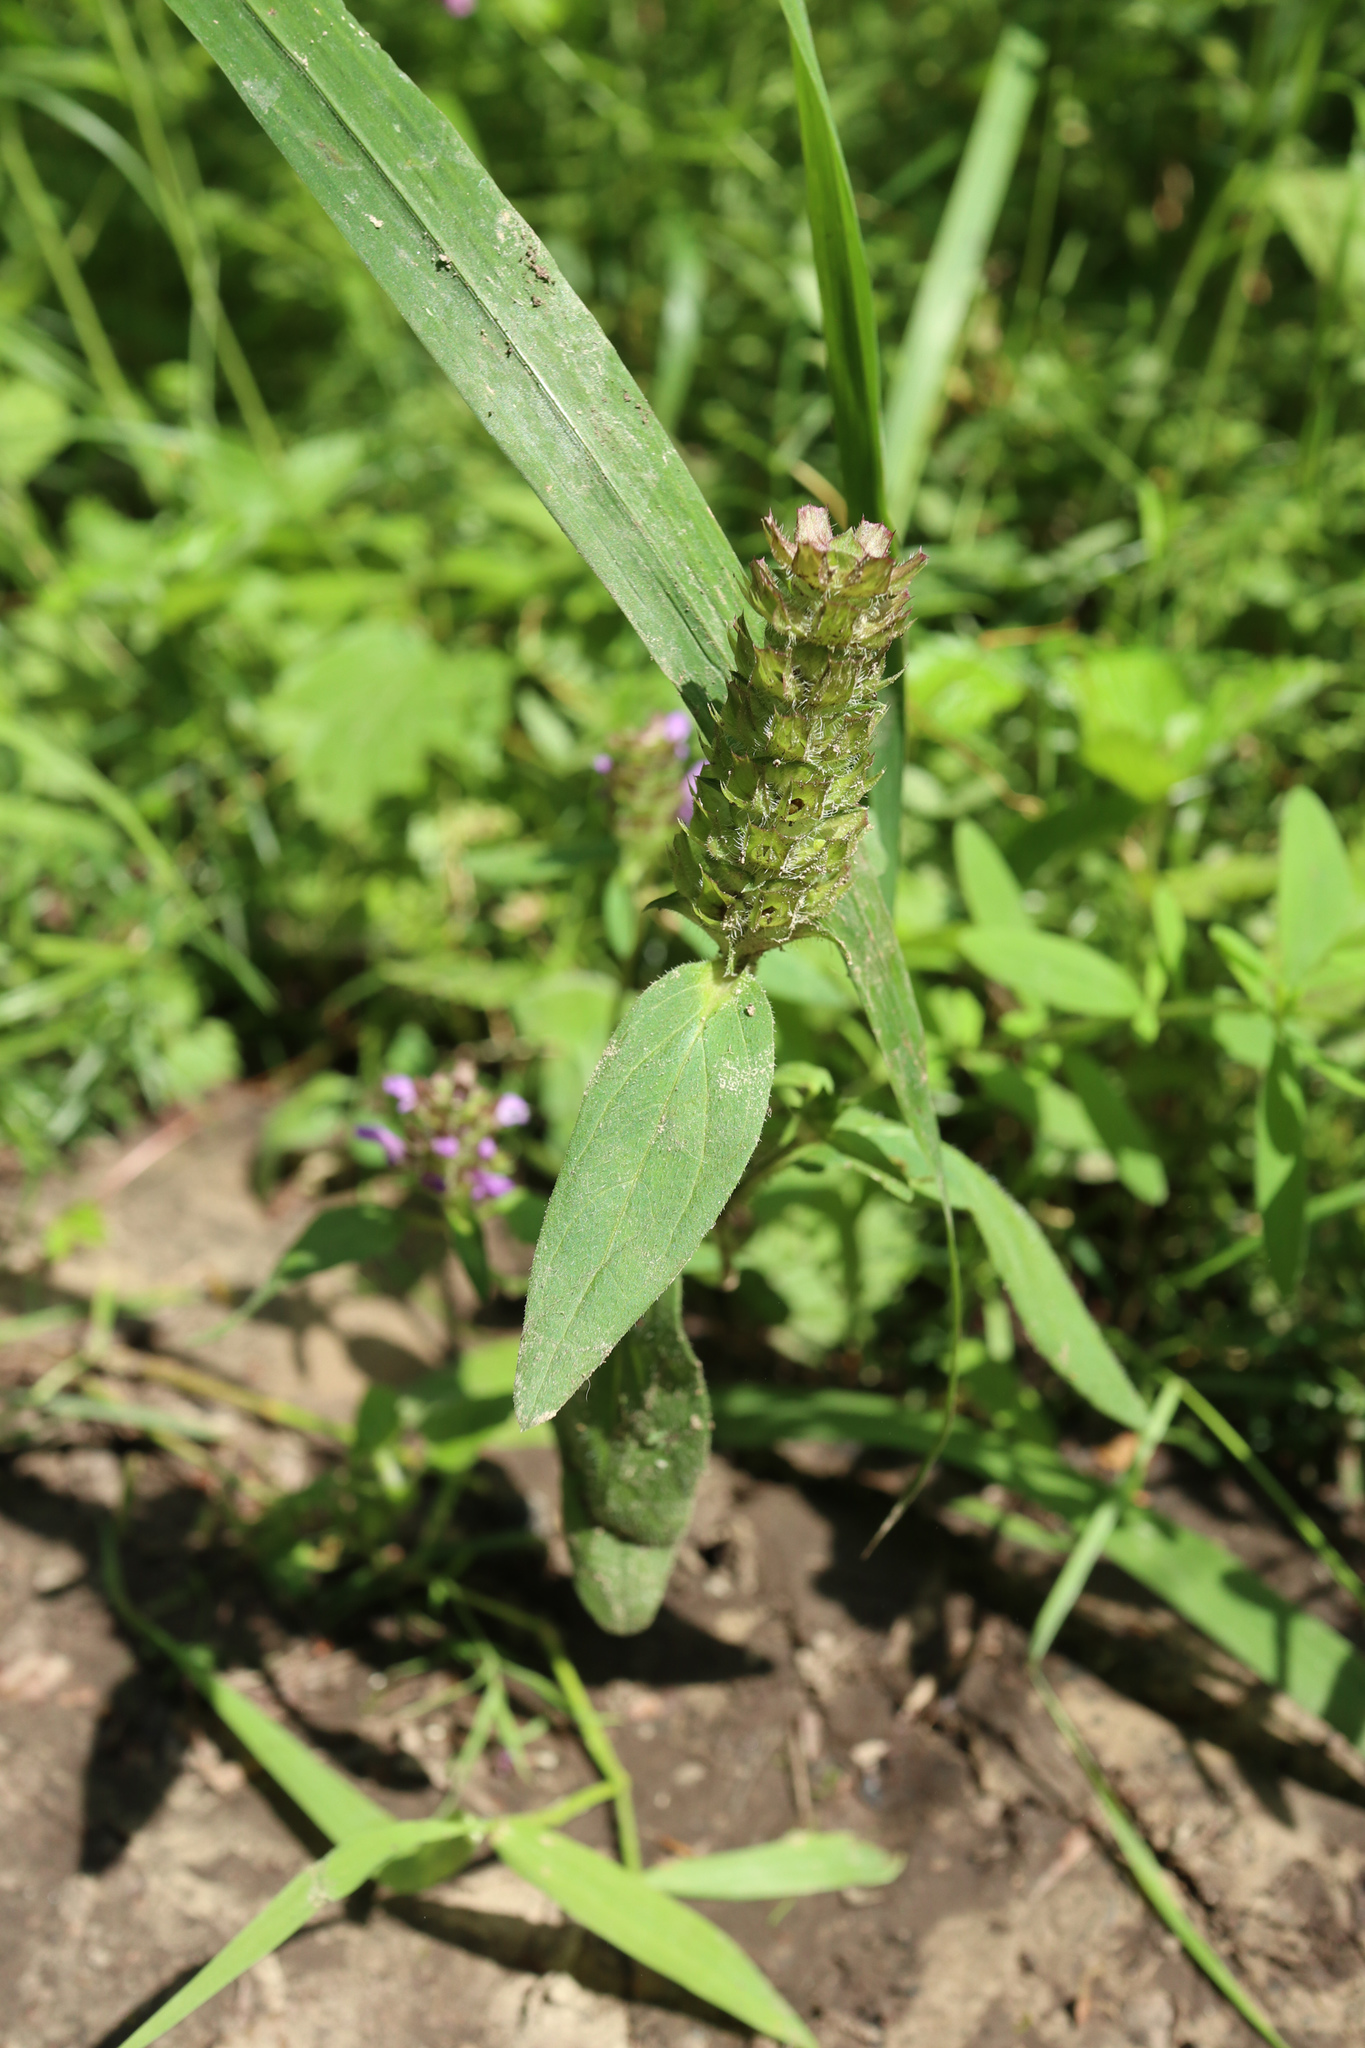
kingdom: Plantae
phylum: Tracheophyta
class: Magnoliopsida
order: Lamiales
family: Lamiaceae
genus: Prunella
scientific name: Prunella vulgaris
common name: Heal-all
